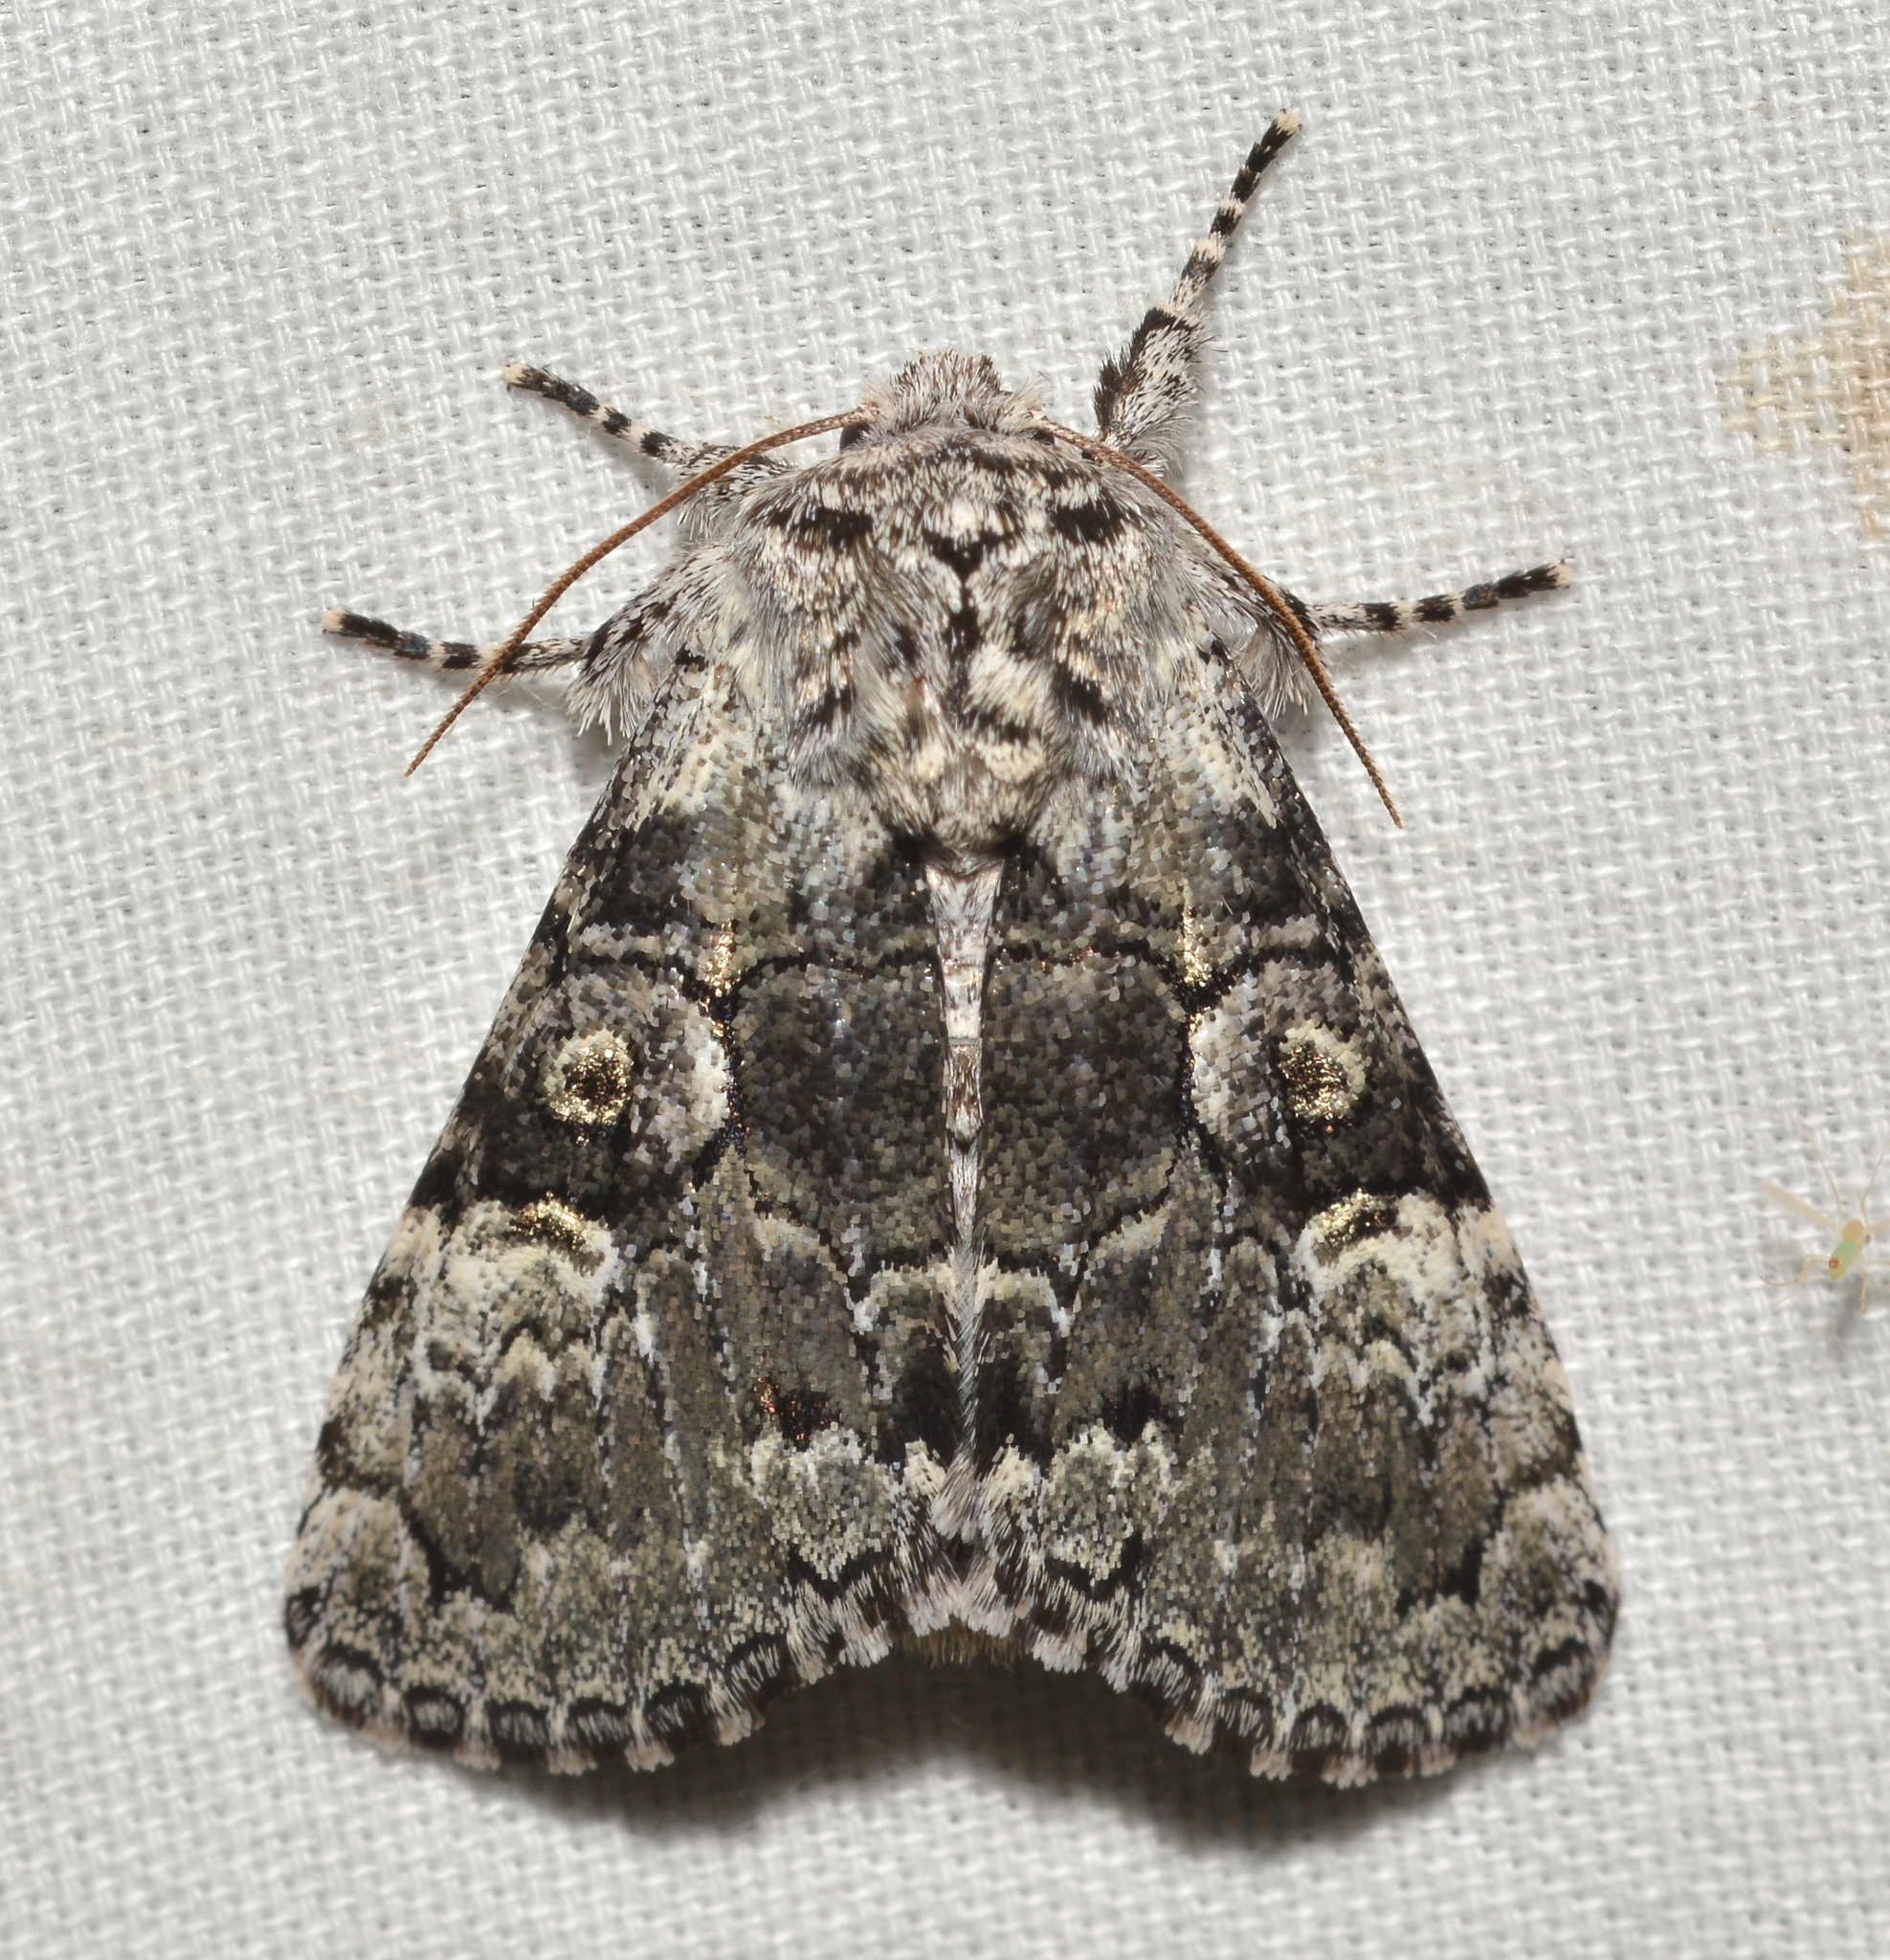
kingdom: Animalia
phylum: Arthropoda
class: Insecta
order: Lepidoptera
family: Noctuidae
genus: Charadra
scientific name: Charadra deridens
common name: Marbled tuffet
